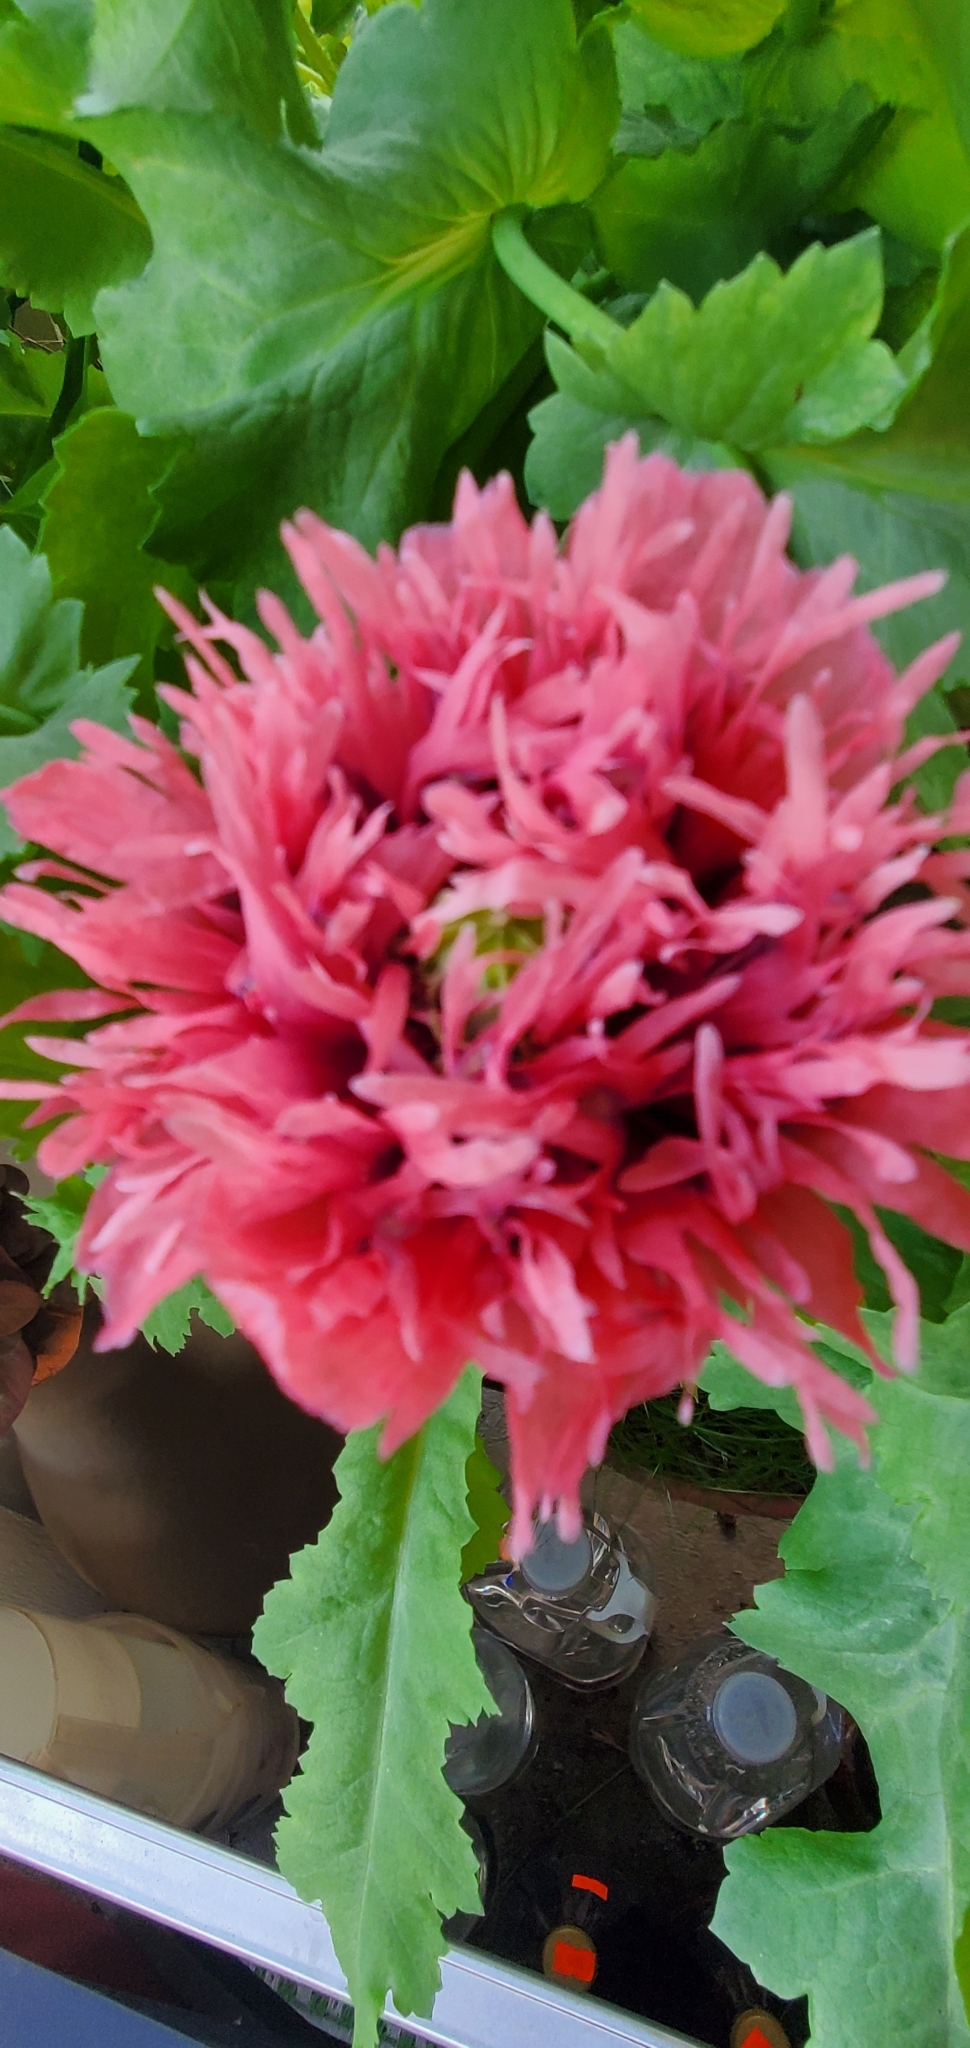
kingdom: Plantae
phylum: Tracheophyta
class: Magnoliopsida
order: Ranunculales
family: Papaveraceae
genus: Papaver
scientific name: Papaver somniferum
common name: Opium poppy
